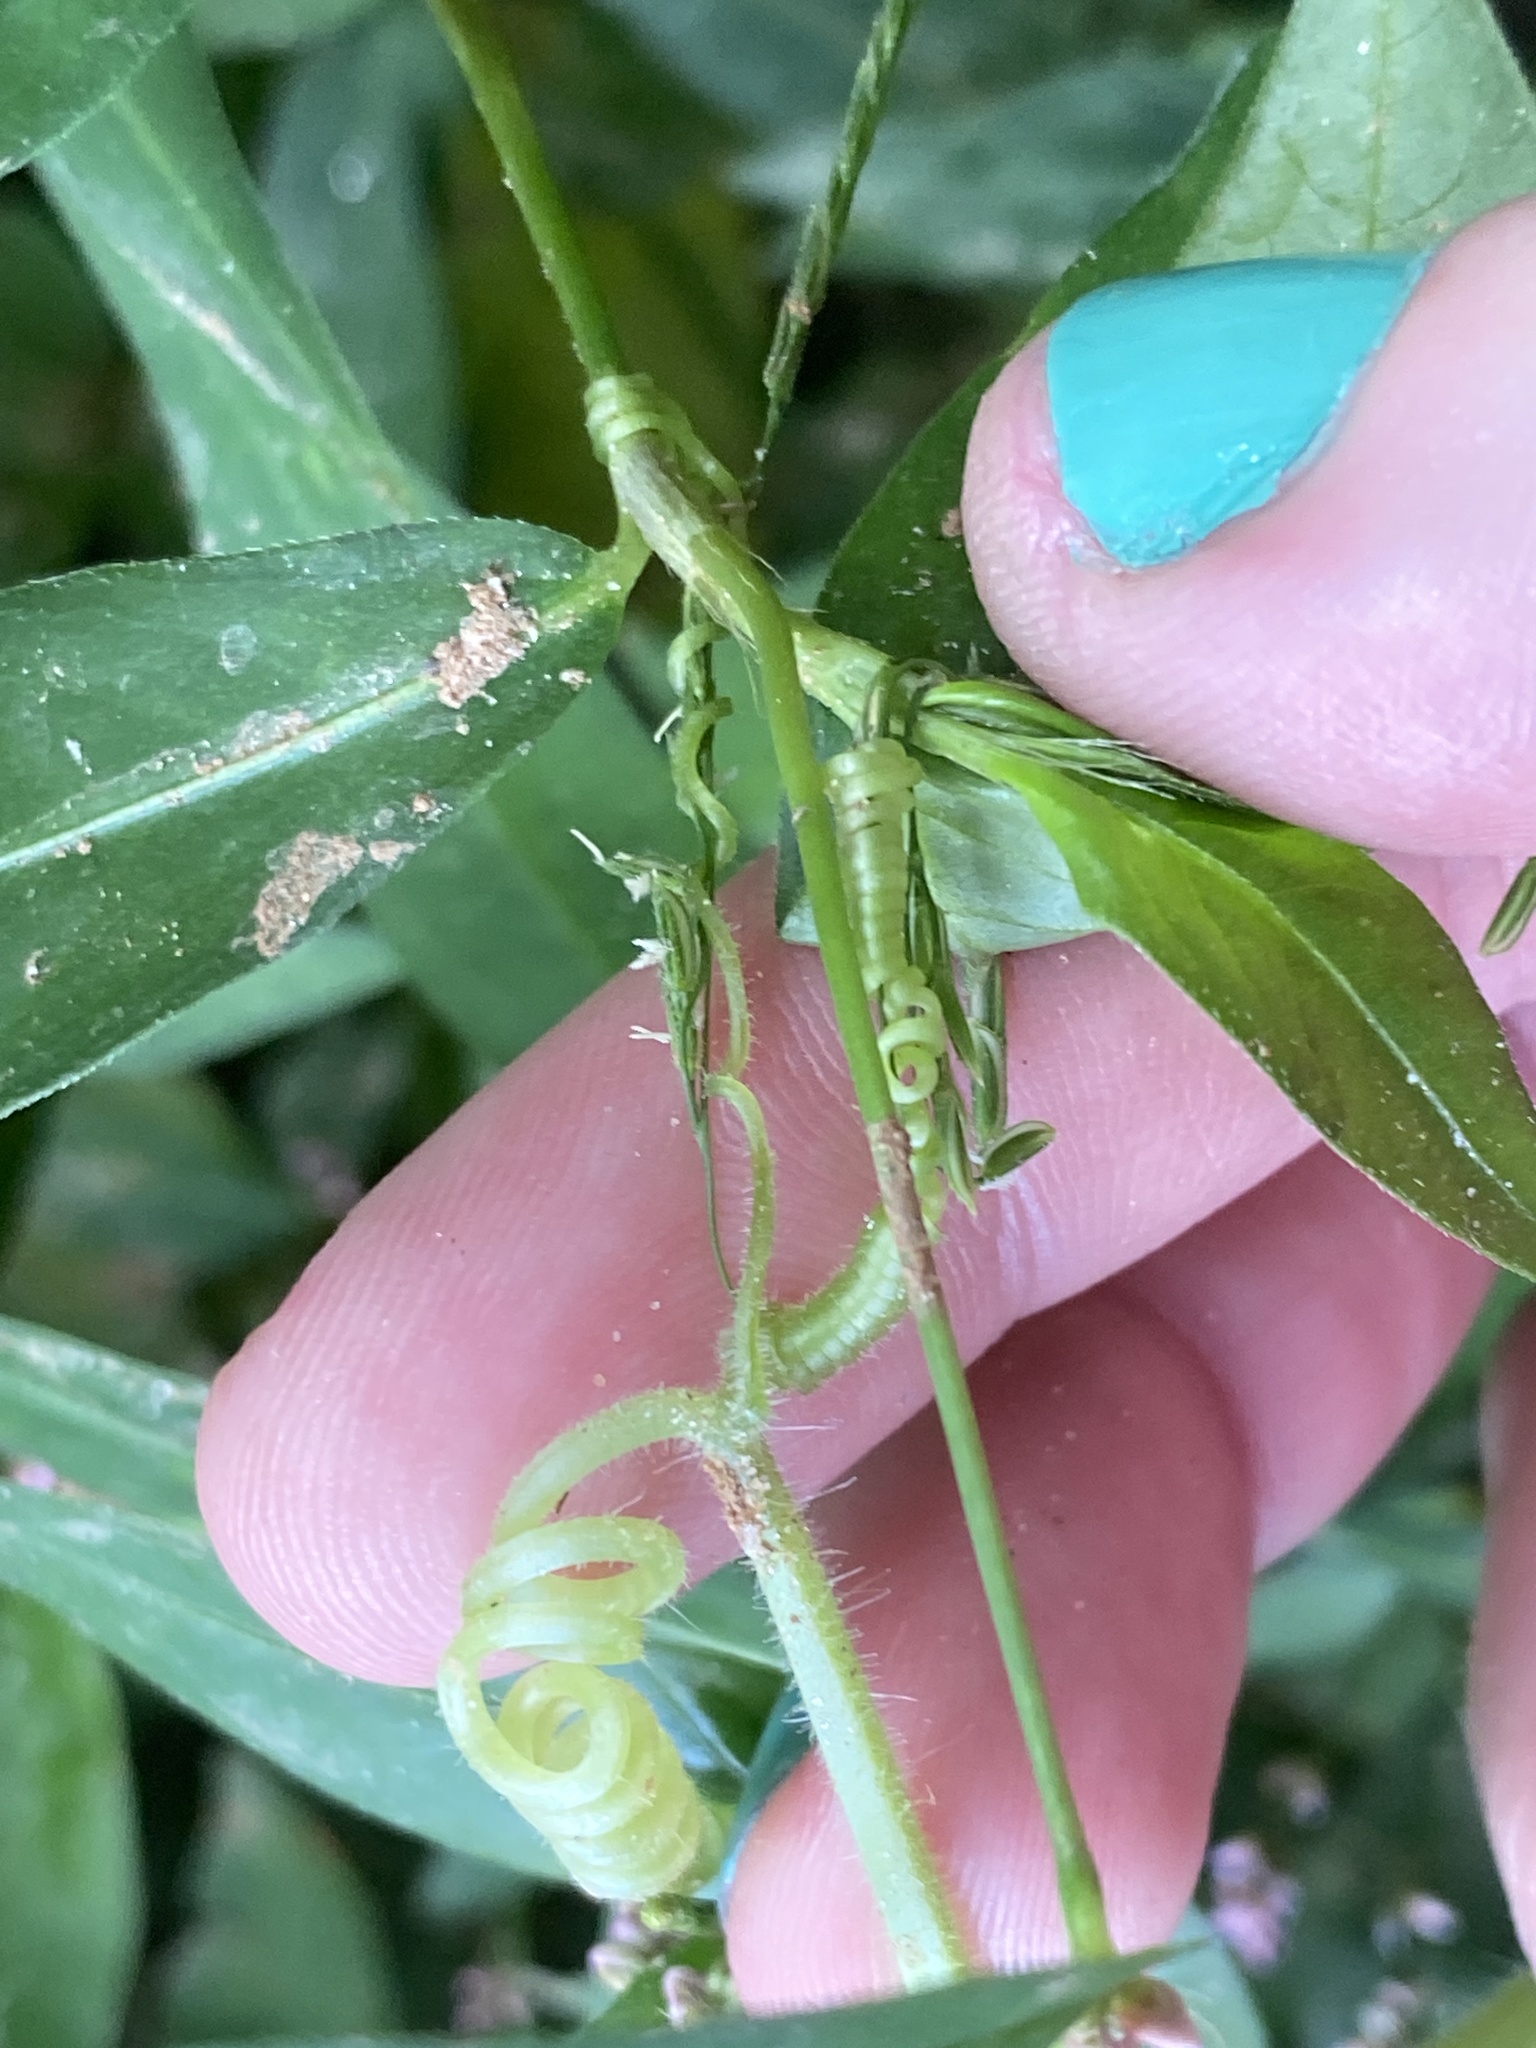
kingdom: Plantae
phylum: Tracheophyta
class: Magnoliopsida
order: Cucurbitales
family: Cucurbitaceae
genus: Sicyos
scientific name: Sicyos angulatus
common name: Angled burr cucumber
